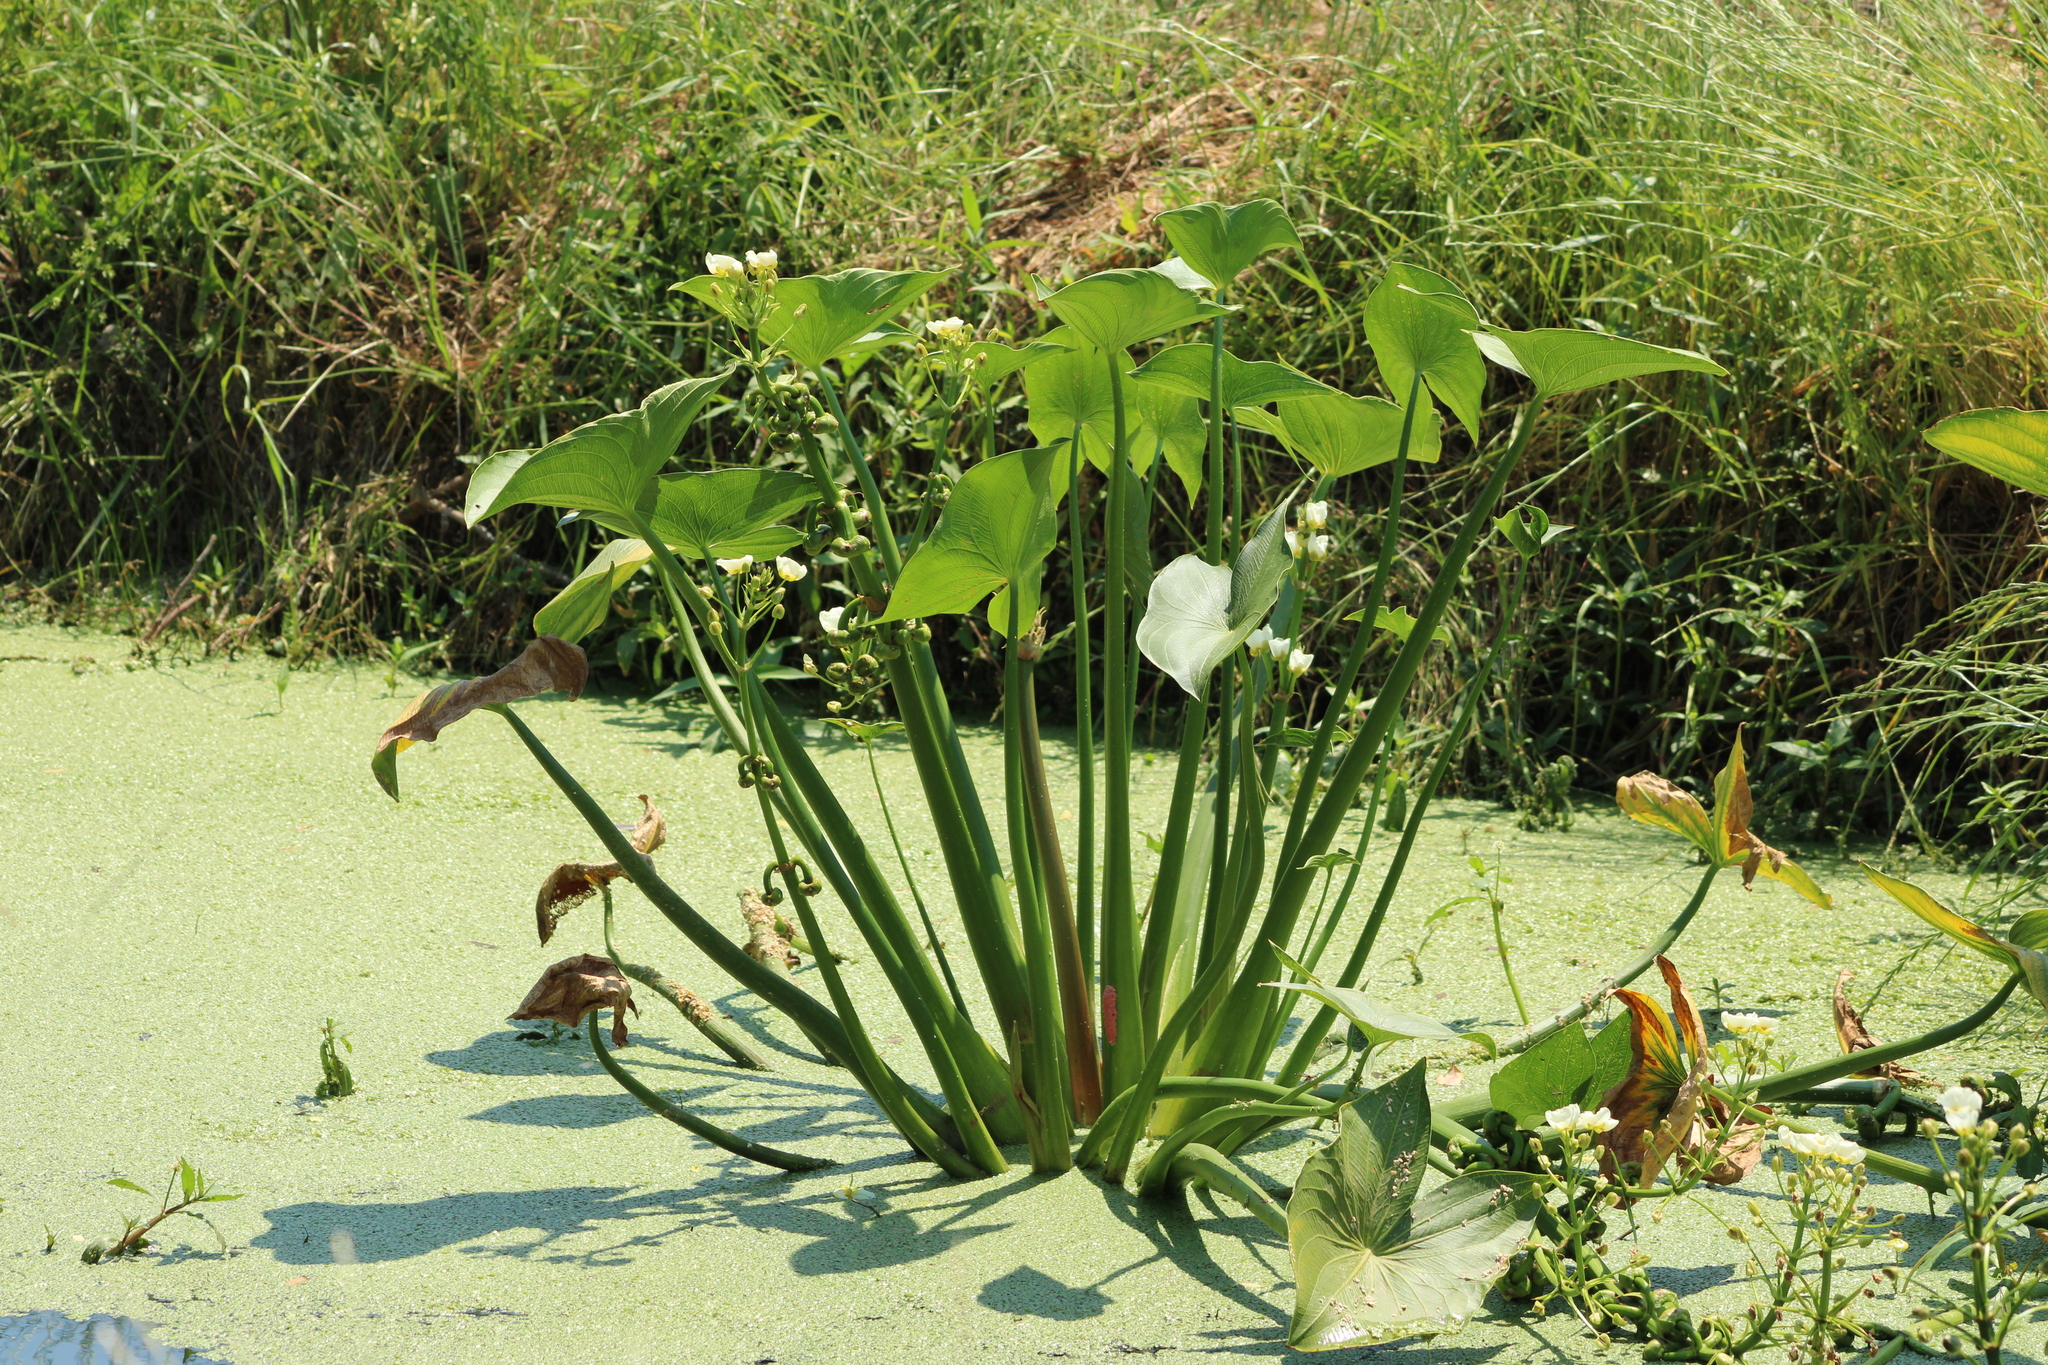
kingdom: Plantae
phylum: Tracheophyta
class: Liliopsida
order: Alismatales
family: Alismataceae
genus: Sagittaria
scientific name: Sagittaria montevidensis
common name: Giant arrowhead
